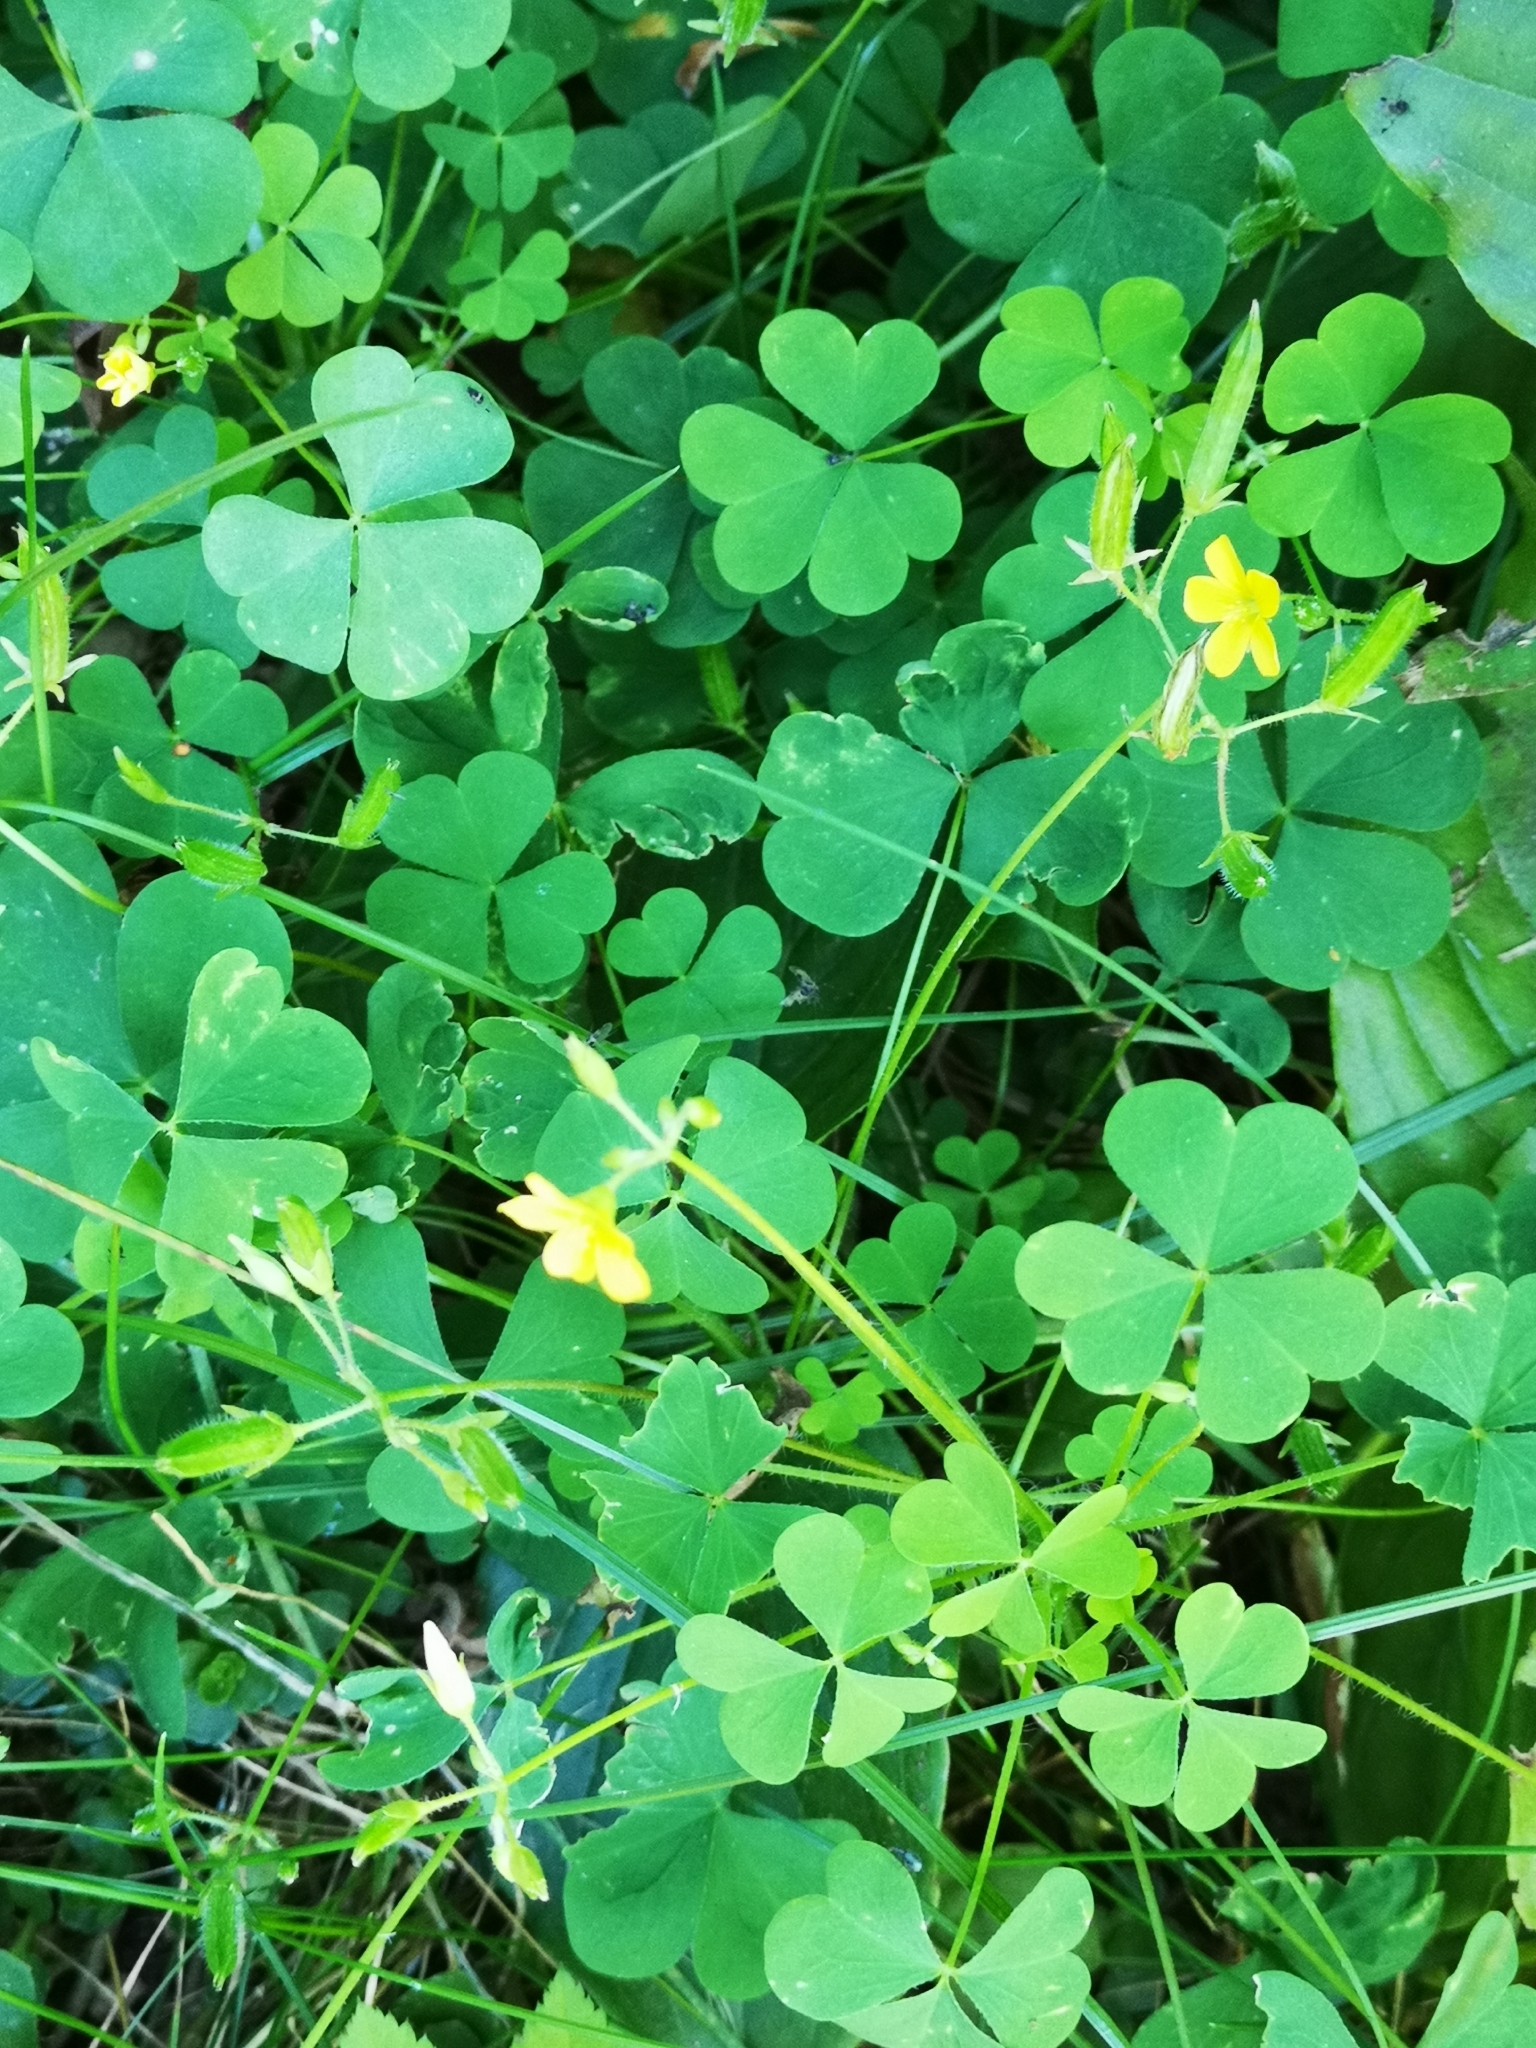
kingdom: Plantae
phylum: Tracheophyta
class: Magnoliopsida
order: Oxalidales
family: Oxalidaceae
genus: Oxalis
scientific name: Oxalis stricta
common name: Upright yellow-sorrel
